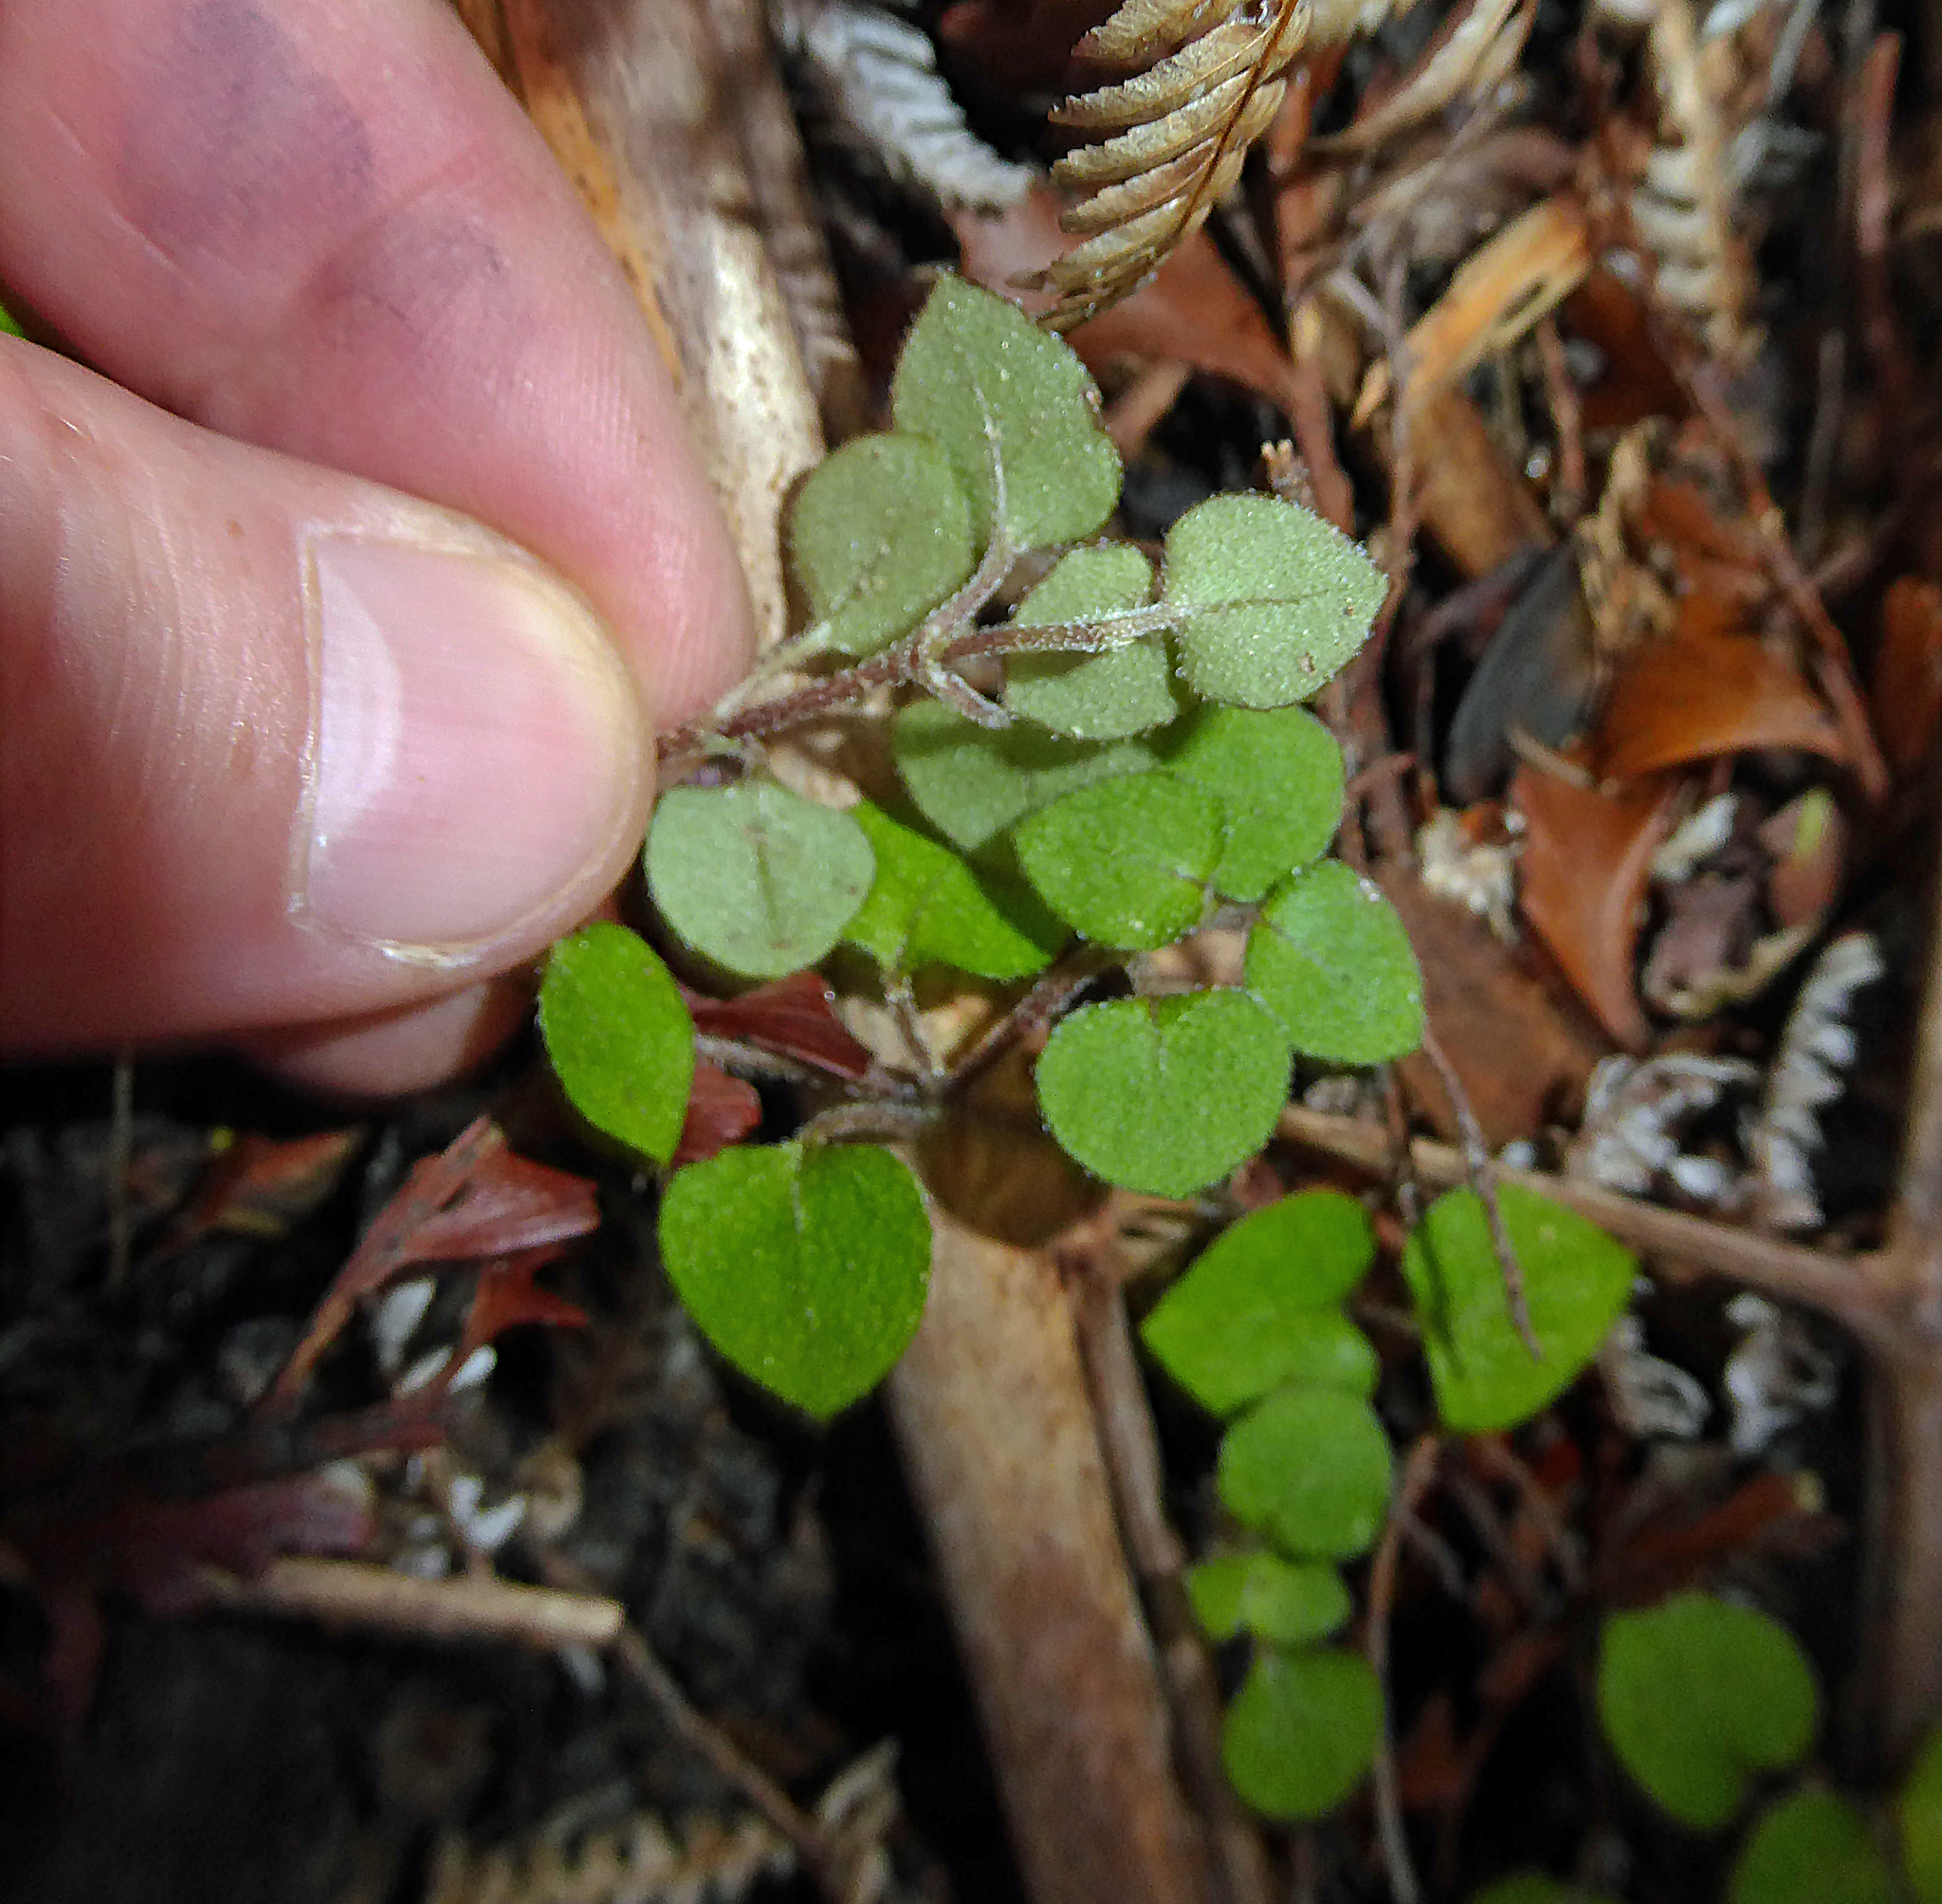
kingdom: Plantae
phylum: Tracheophyta
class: Magnoliopsida
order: Gentianales
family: Rubiaceae
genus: Nertera
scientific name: Nertera dichondrifolia
